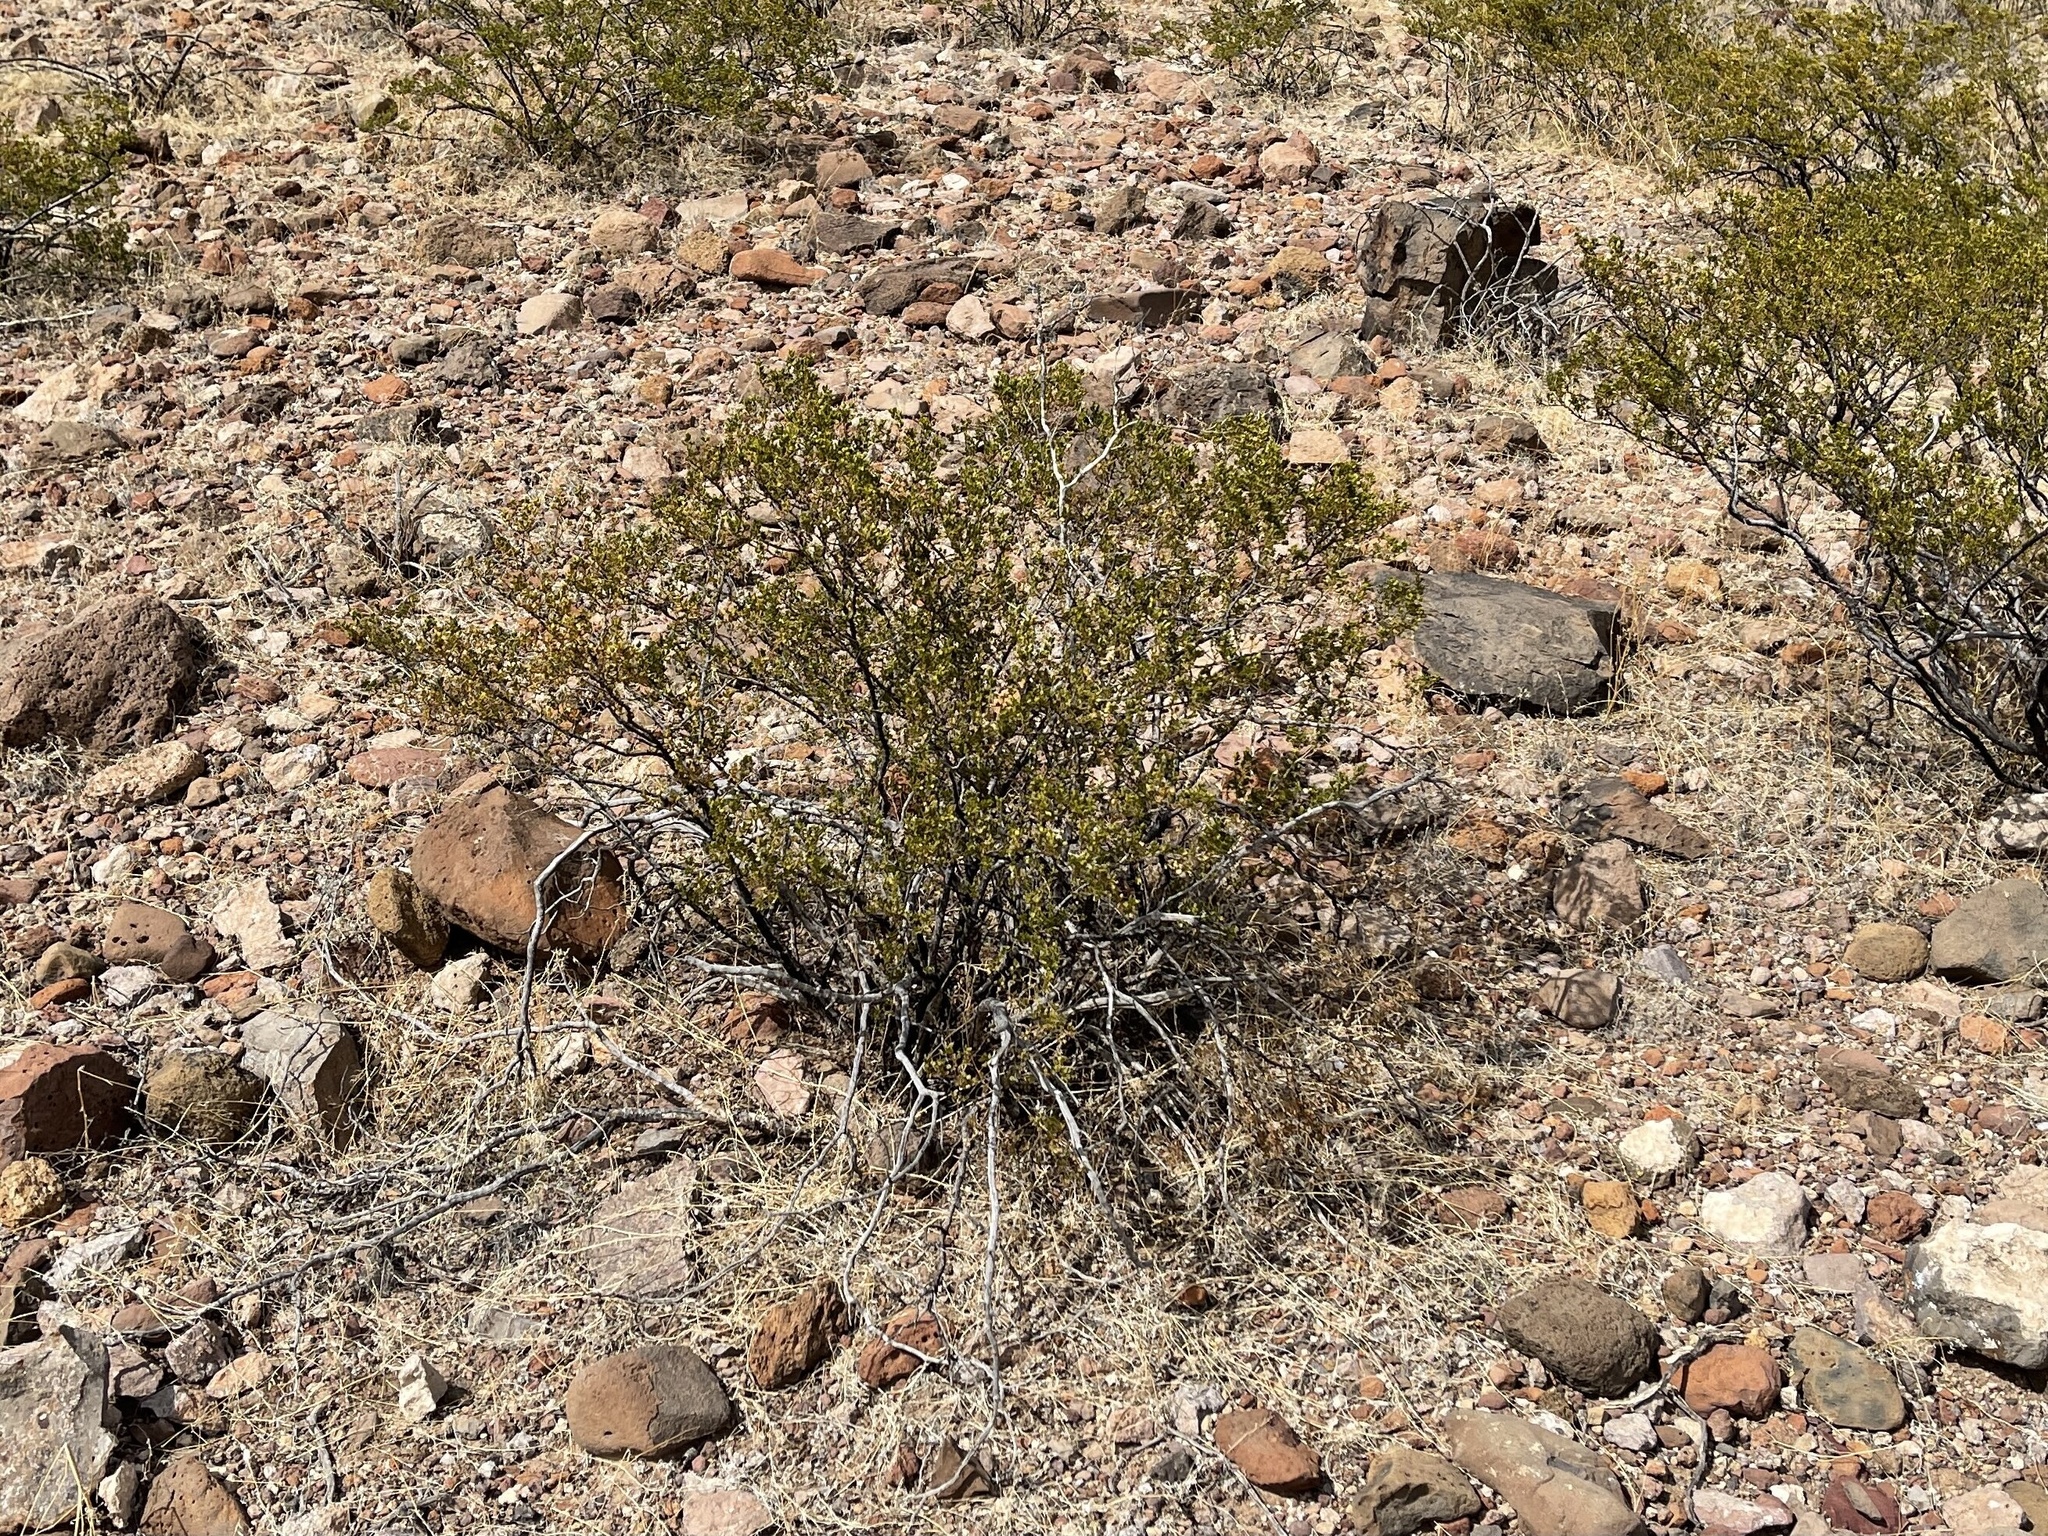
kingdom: Plantae
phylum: Tracheophyta
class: Magnoliopsida
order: Zygophyllales
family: Zygophyllaceae
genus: Larrea
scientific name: Larrea tridentata
